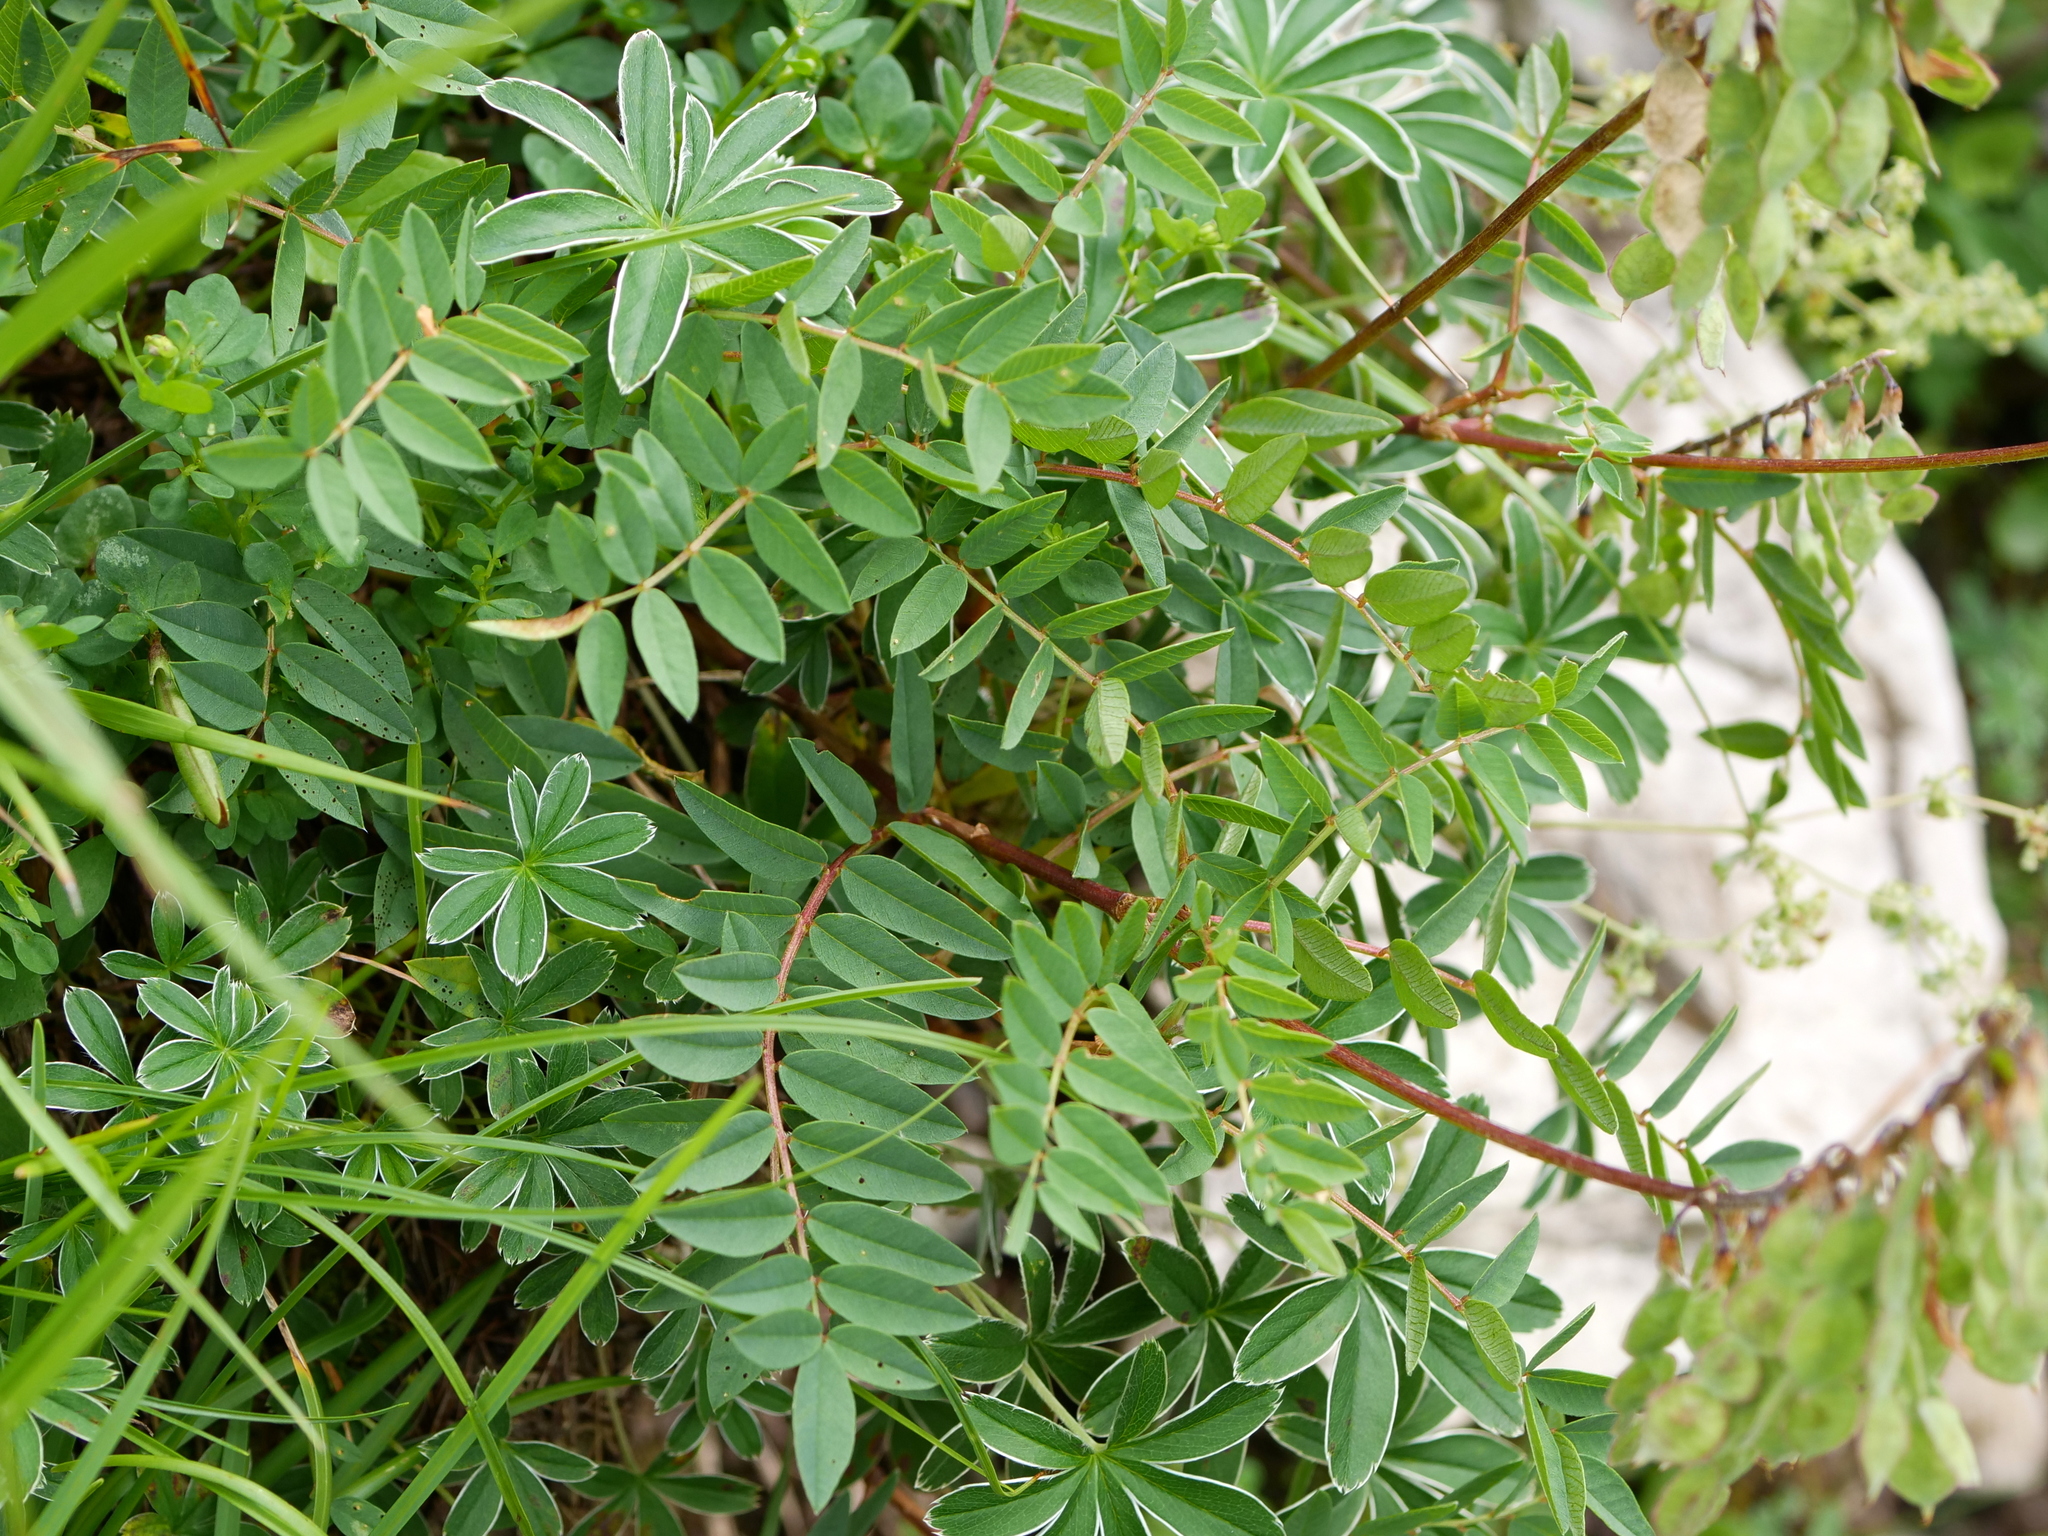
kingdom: Plantae
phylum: Tracheophyta
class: Magnoliopsida
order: Fabales
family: Fabaceae
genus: Hedysarum
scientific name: Hedysarum hedysaroides
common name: Alpine french-honeysuckle
